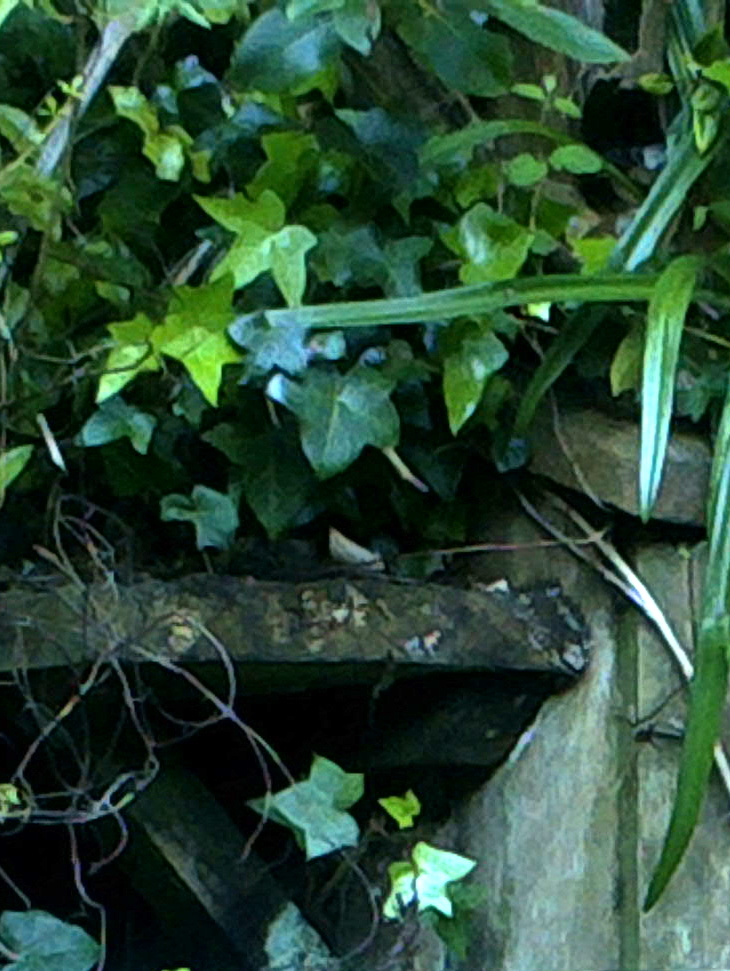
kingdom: Plantae
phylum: Tracheophyta
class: Magnoliopsida
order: Apiales
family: Araliaceae
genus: Hedera
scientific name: Hedera helix
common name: Ivy
